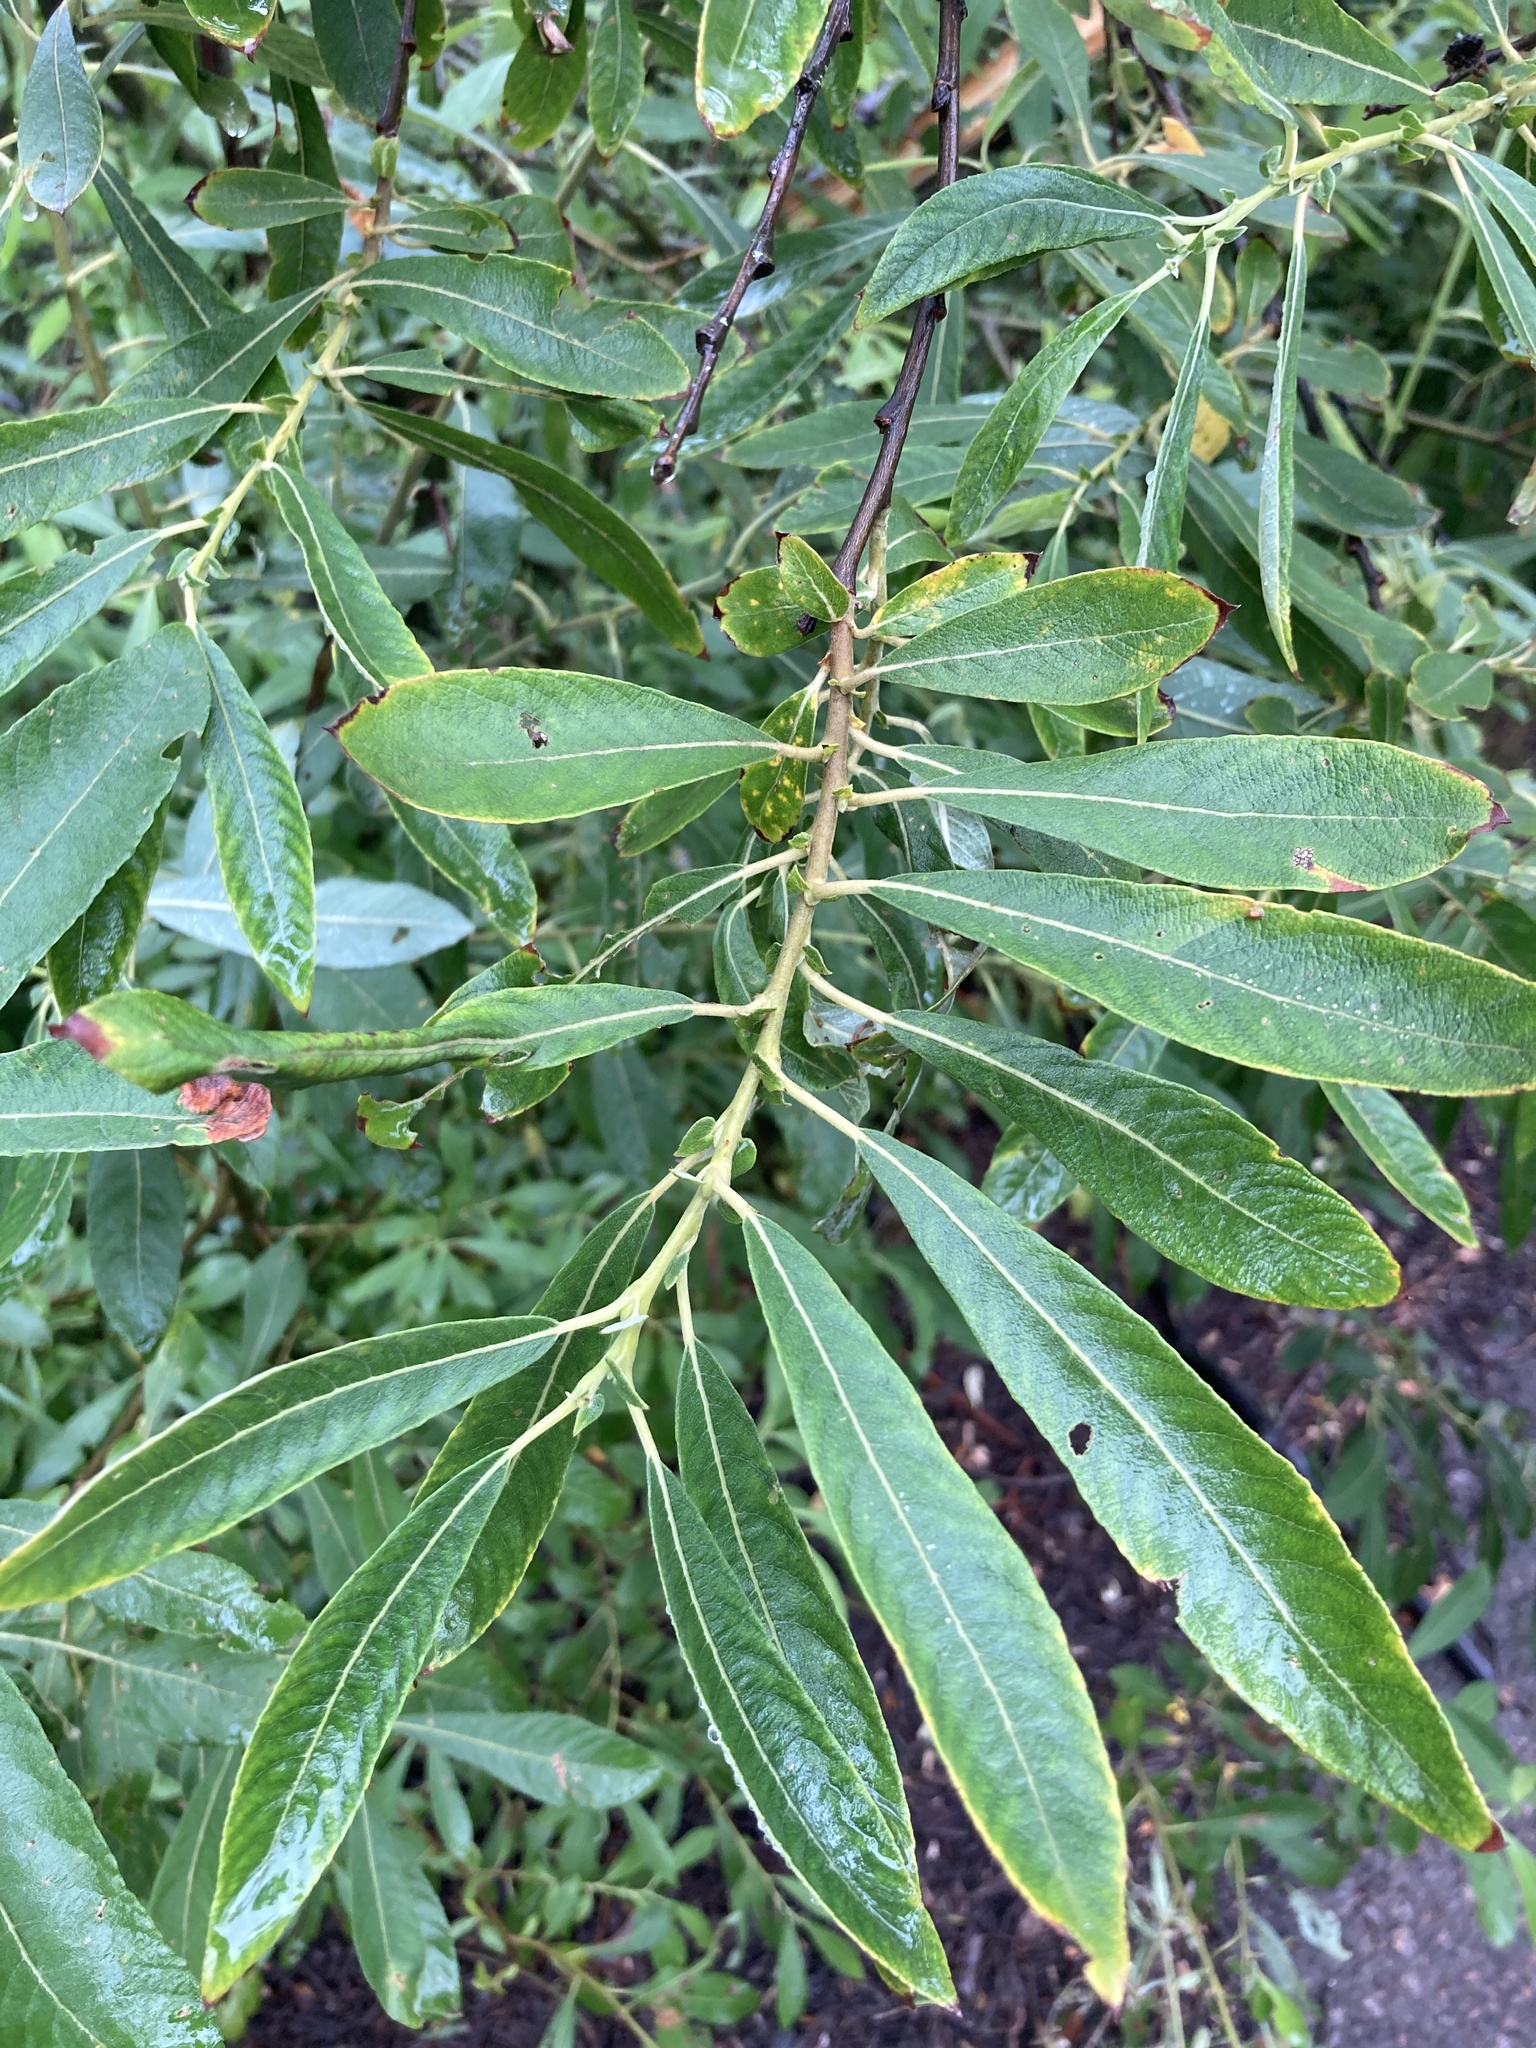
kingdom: Plantae
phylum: Tracheophyta
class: Magnoliopsida
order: Malpighiales
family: Salicaceae
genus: Salix
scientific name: Salix cinerea
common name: Common sallow
